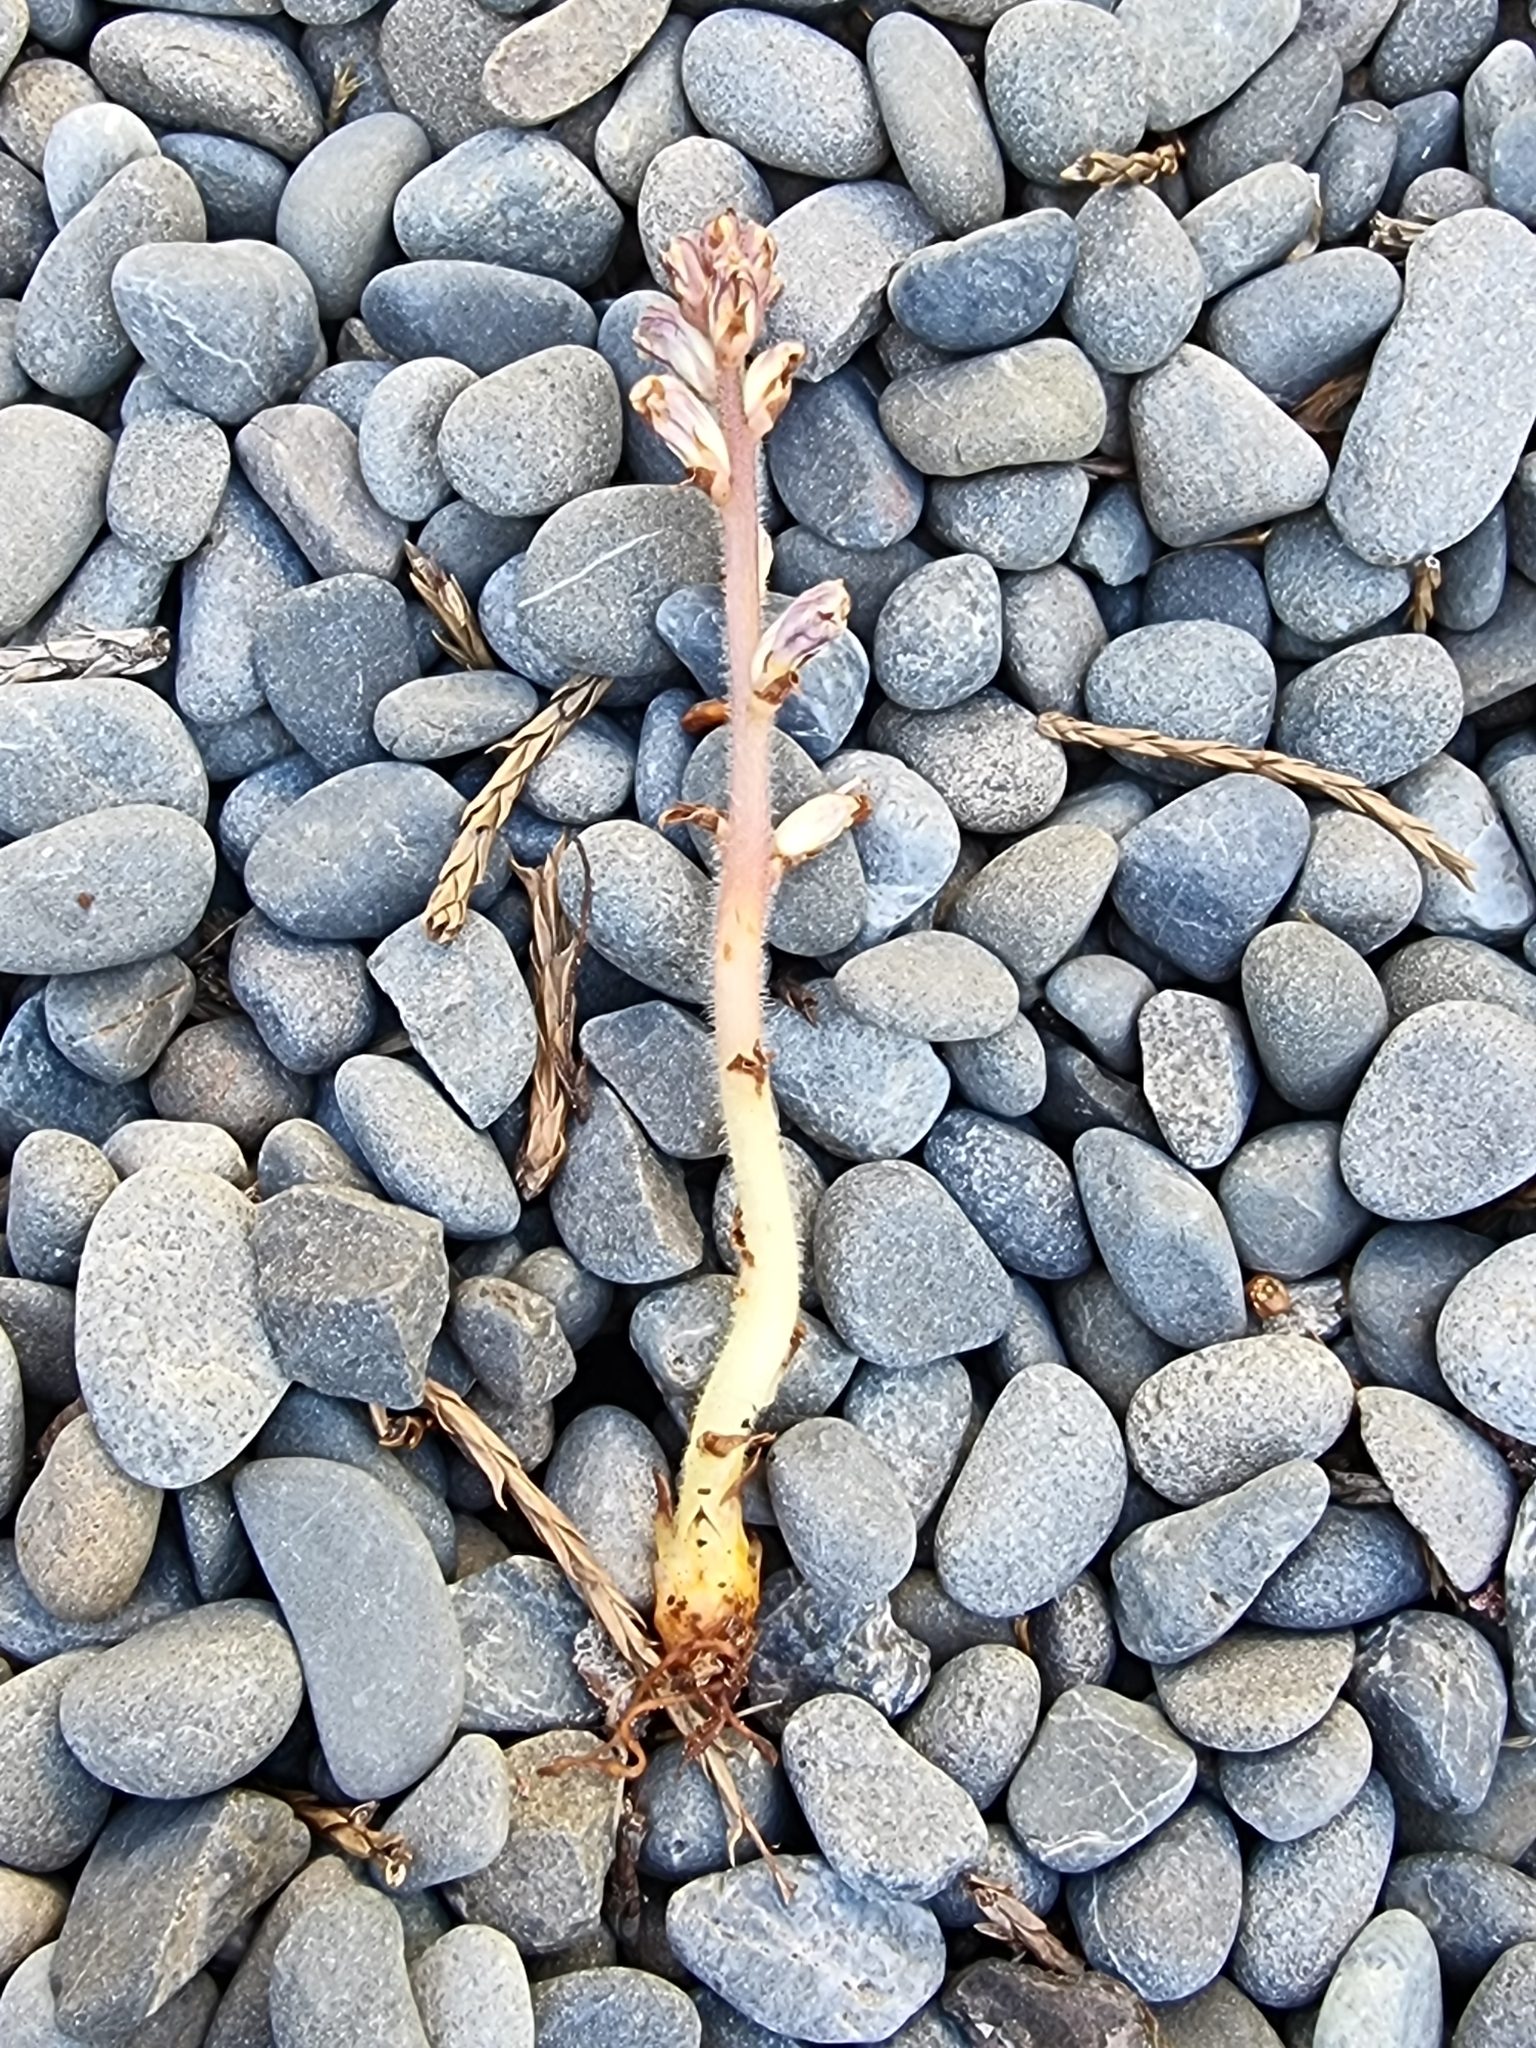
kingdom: Plantae
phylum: Tracheophyta
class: Magnoliopsida
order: Lamiales
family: Orobanchaceae
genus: Orobanche
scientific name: Orobanche minor
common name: Common broomrape
